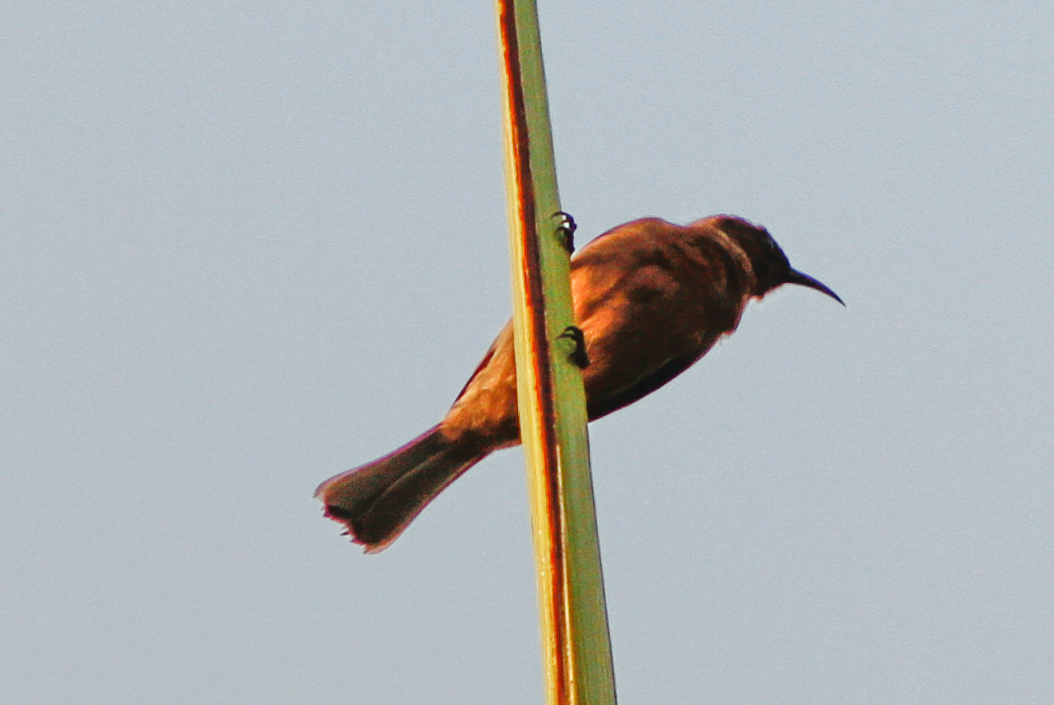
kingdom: Animalia
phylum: Chordata
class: Aves
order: Passeriformes
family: Meliphagidae
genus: Myzomela
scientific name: Myzomela obscura
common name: Dusky myzomela
